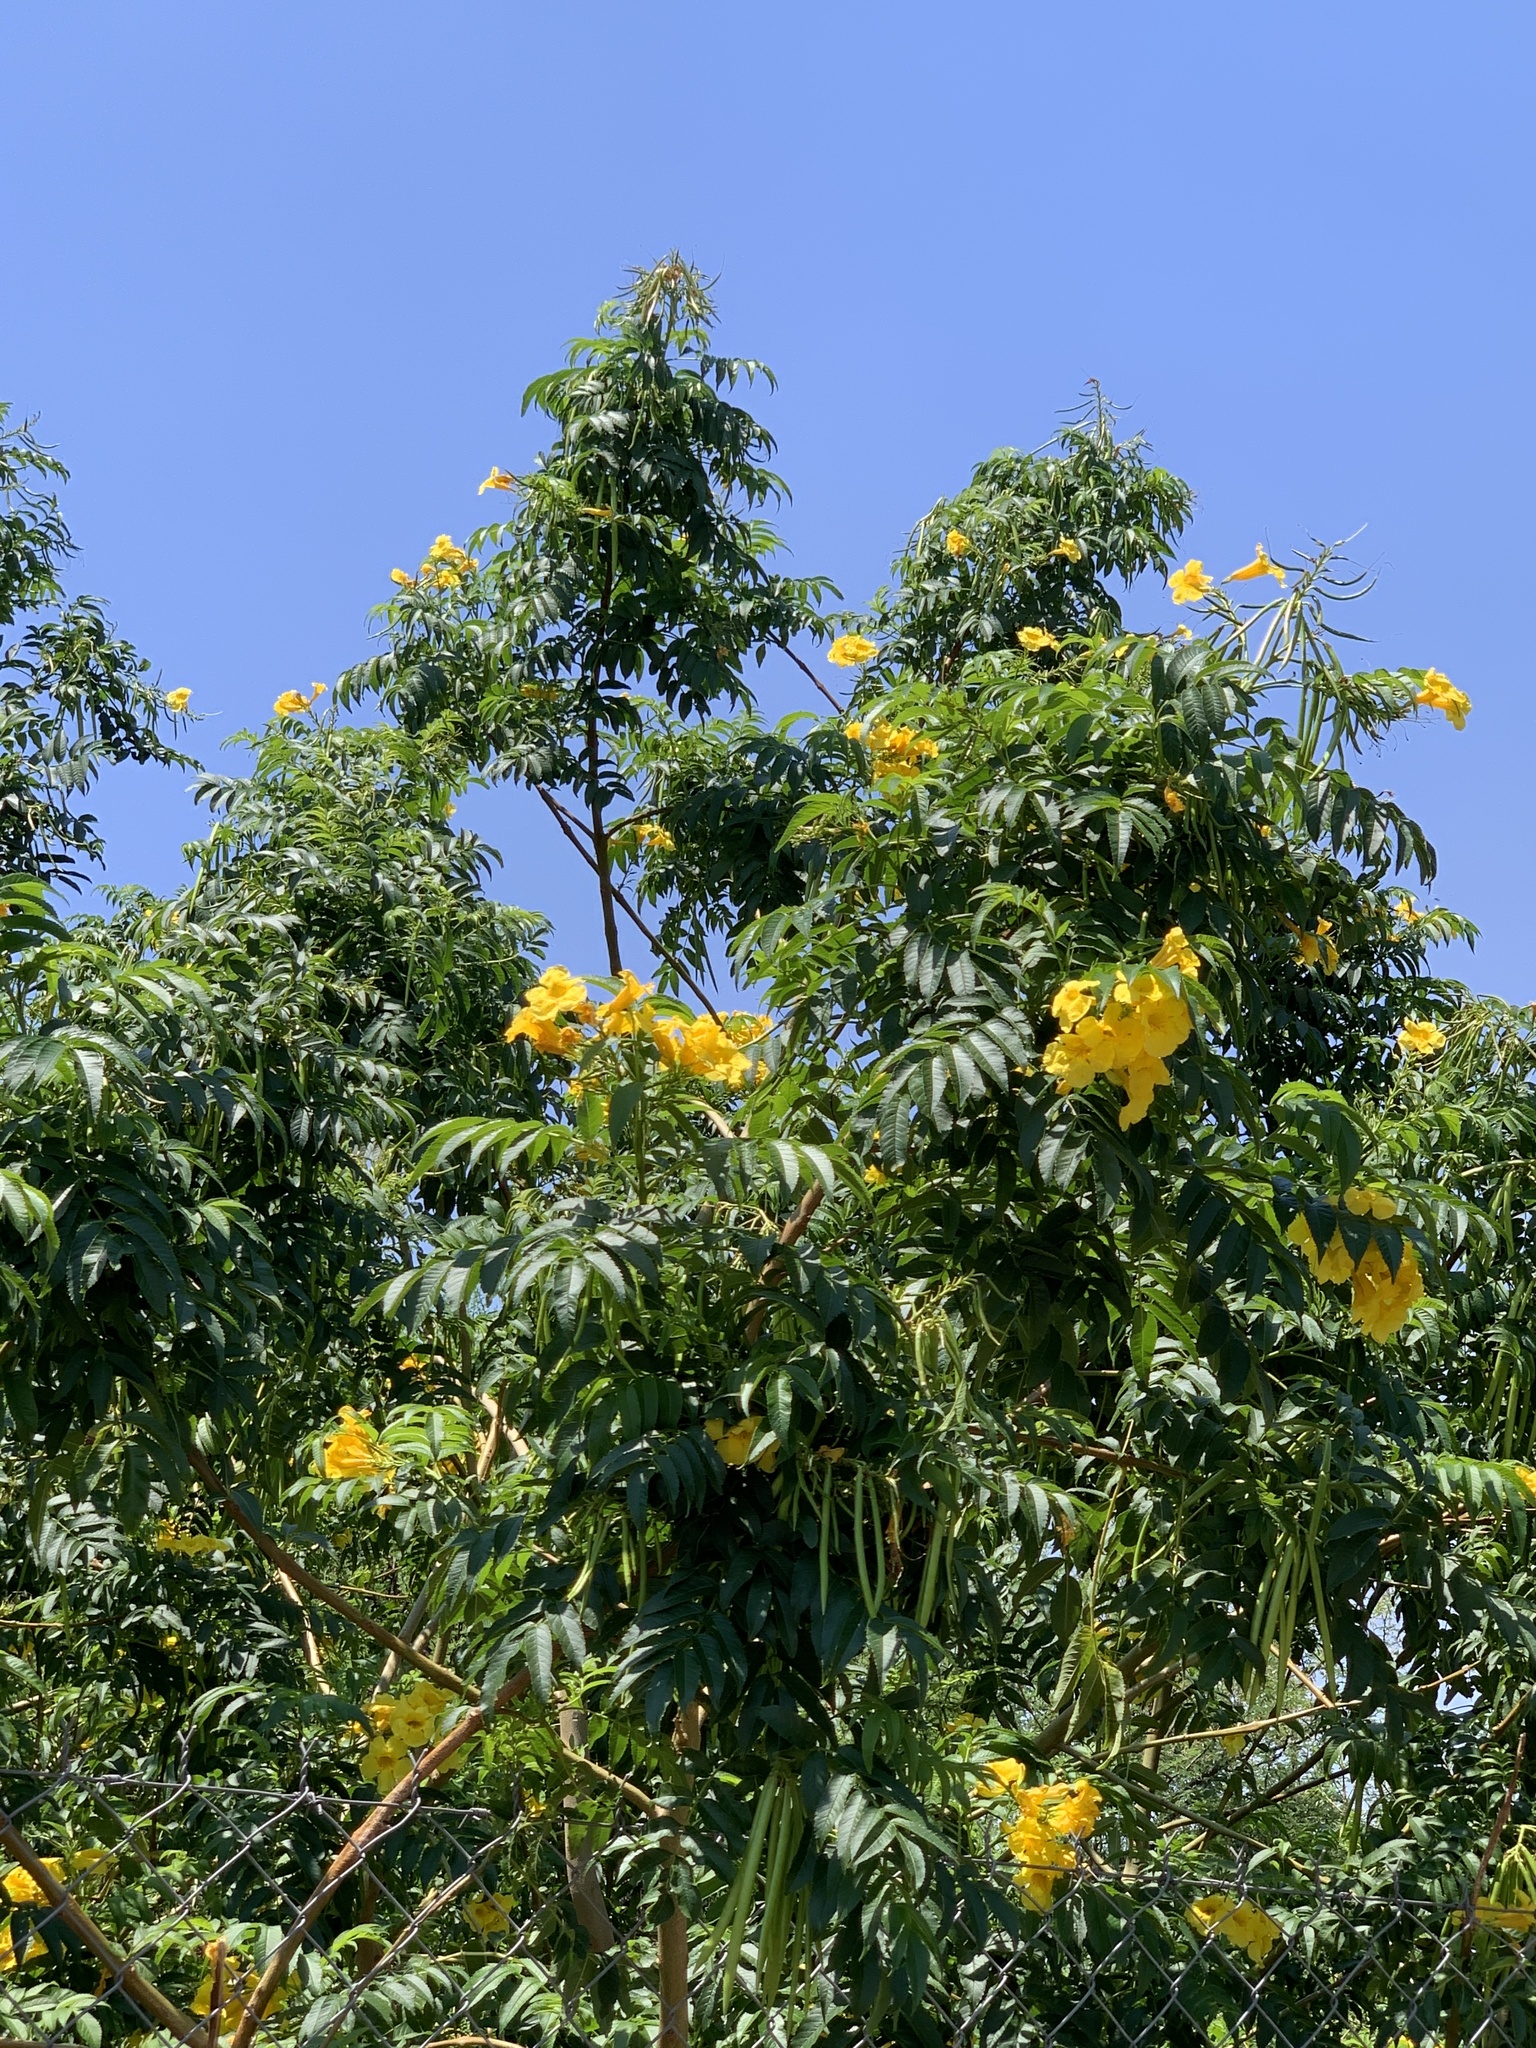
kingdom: Plantae
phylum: Tracheophyta
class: Magnoliopsida
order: Lamiales
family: Bignoniaceae
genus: Tecoma
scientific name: Tecoma stans
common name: Yellow trumpetbush
